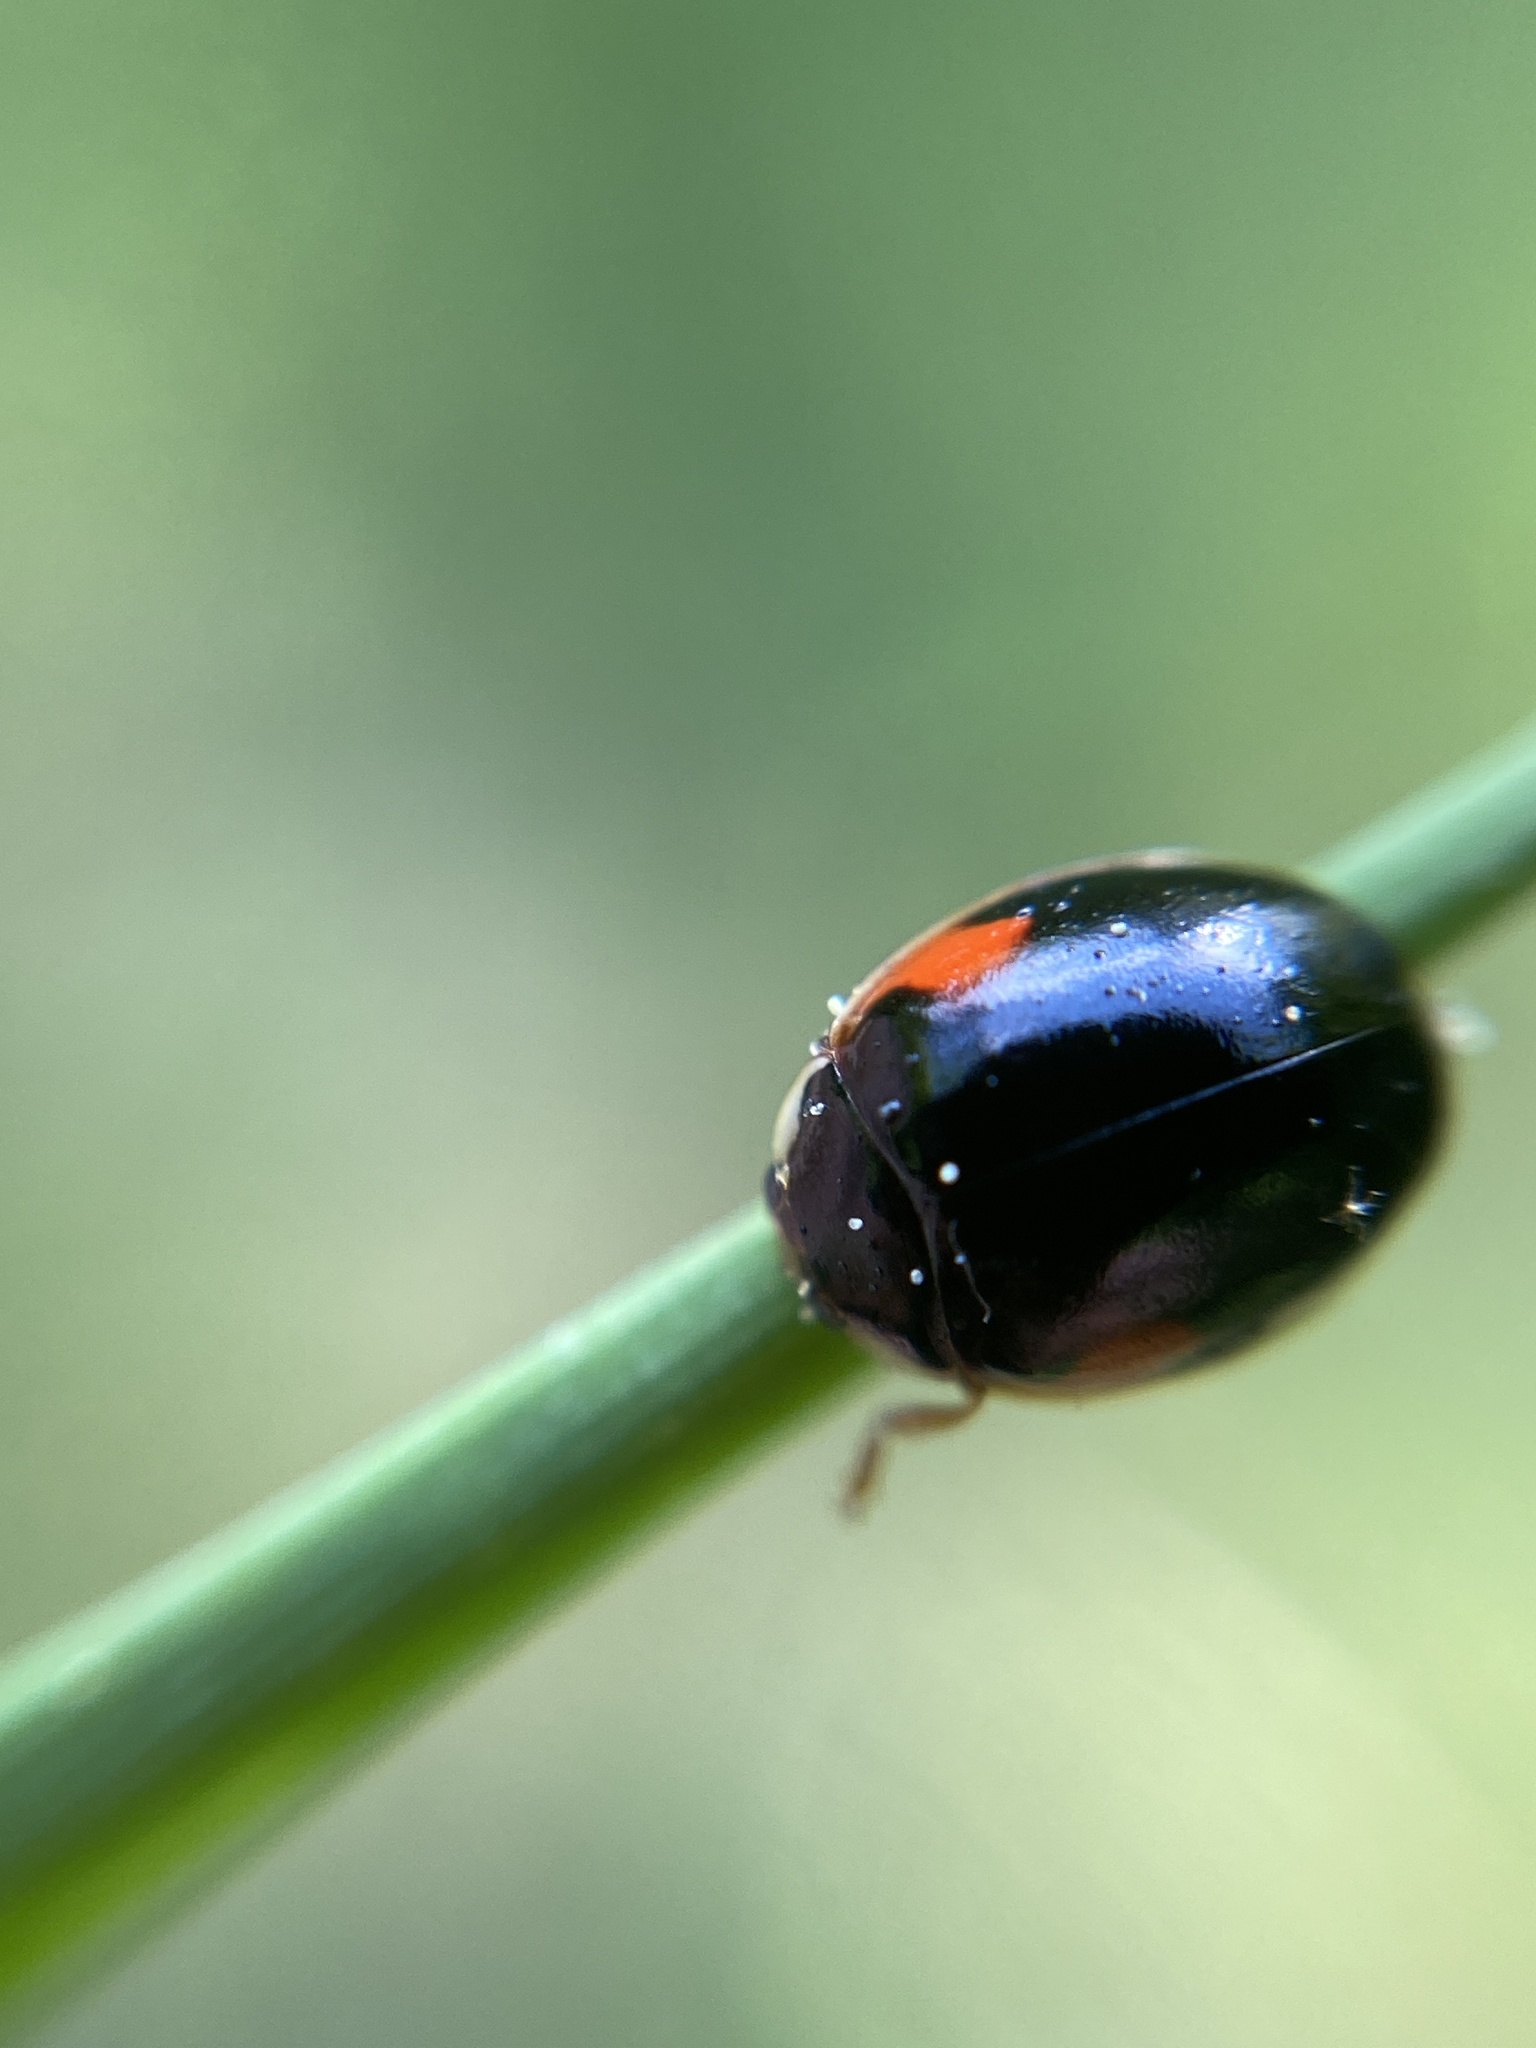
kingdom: Animalia
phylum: Arthropoda
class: Insecta
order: Coleoptera
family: Coccinellidae
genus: Adalia
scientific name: Adalia decempunctata
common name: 10-spot ladybird
